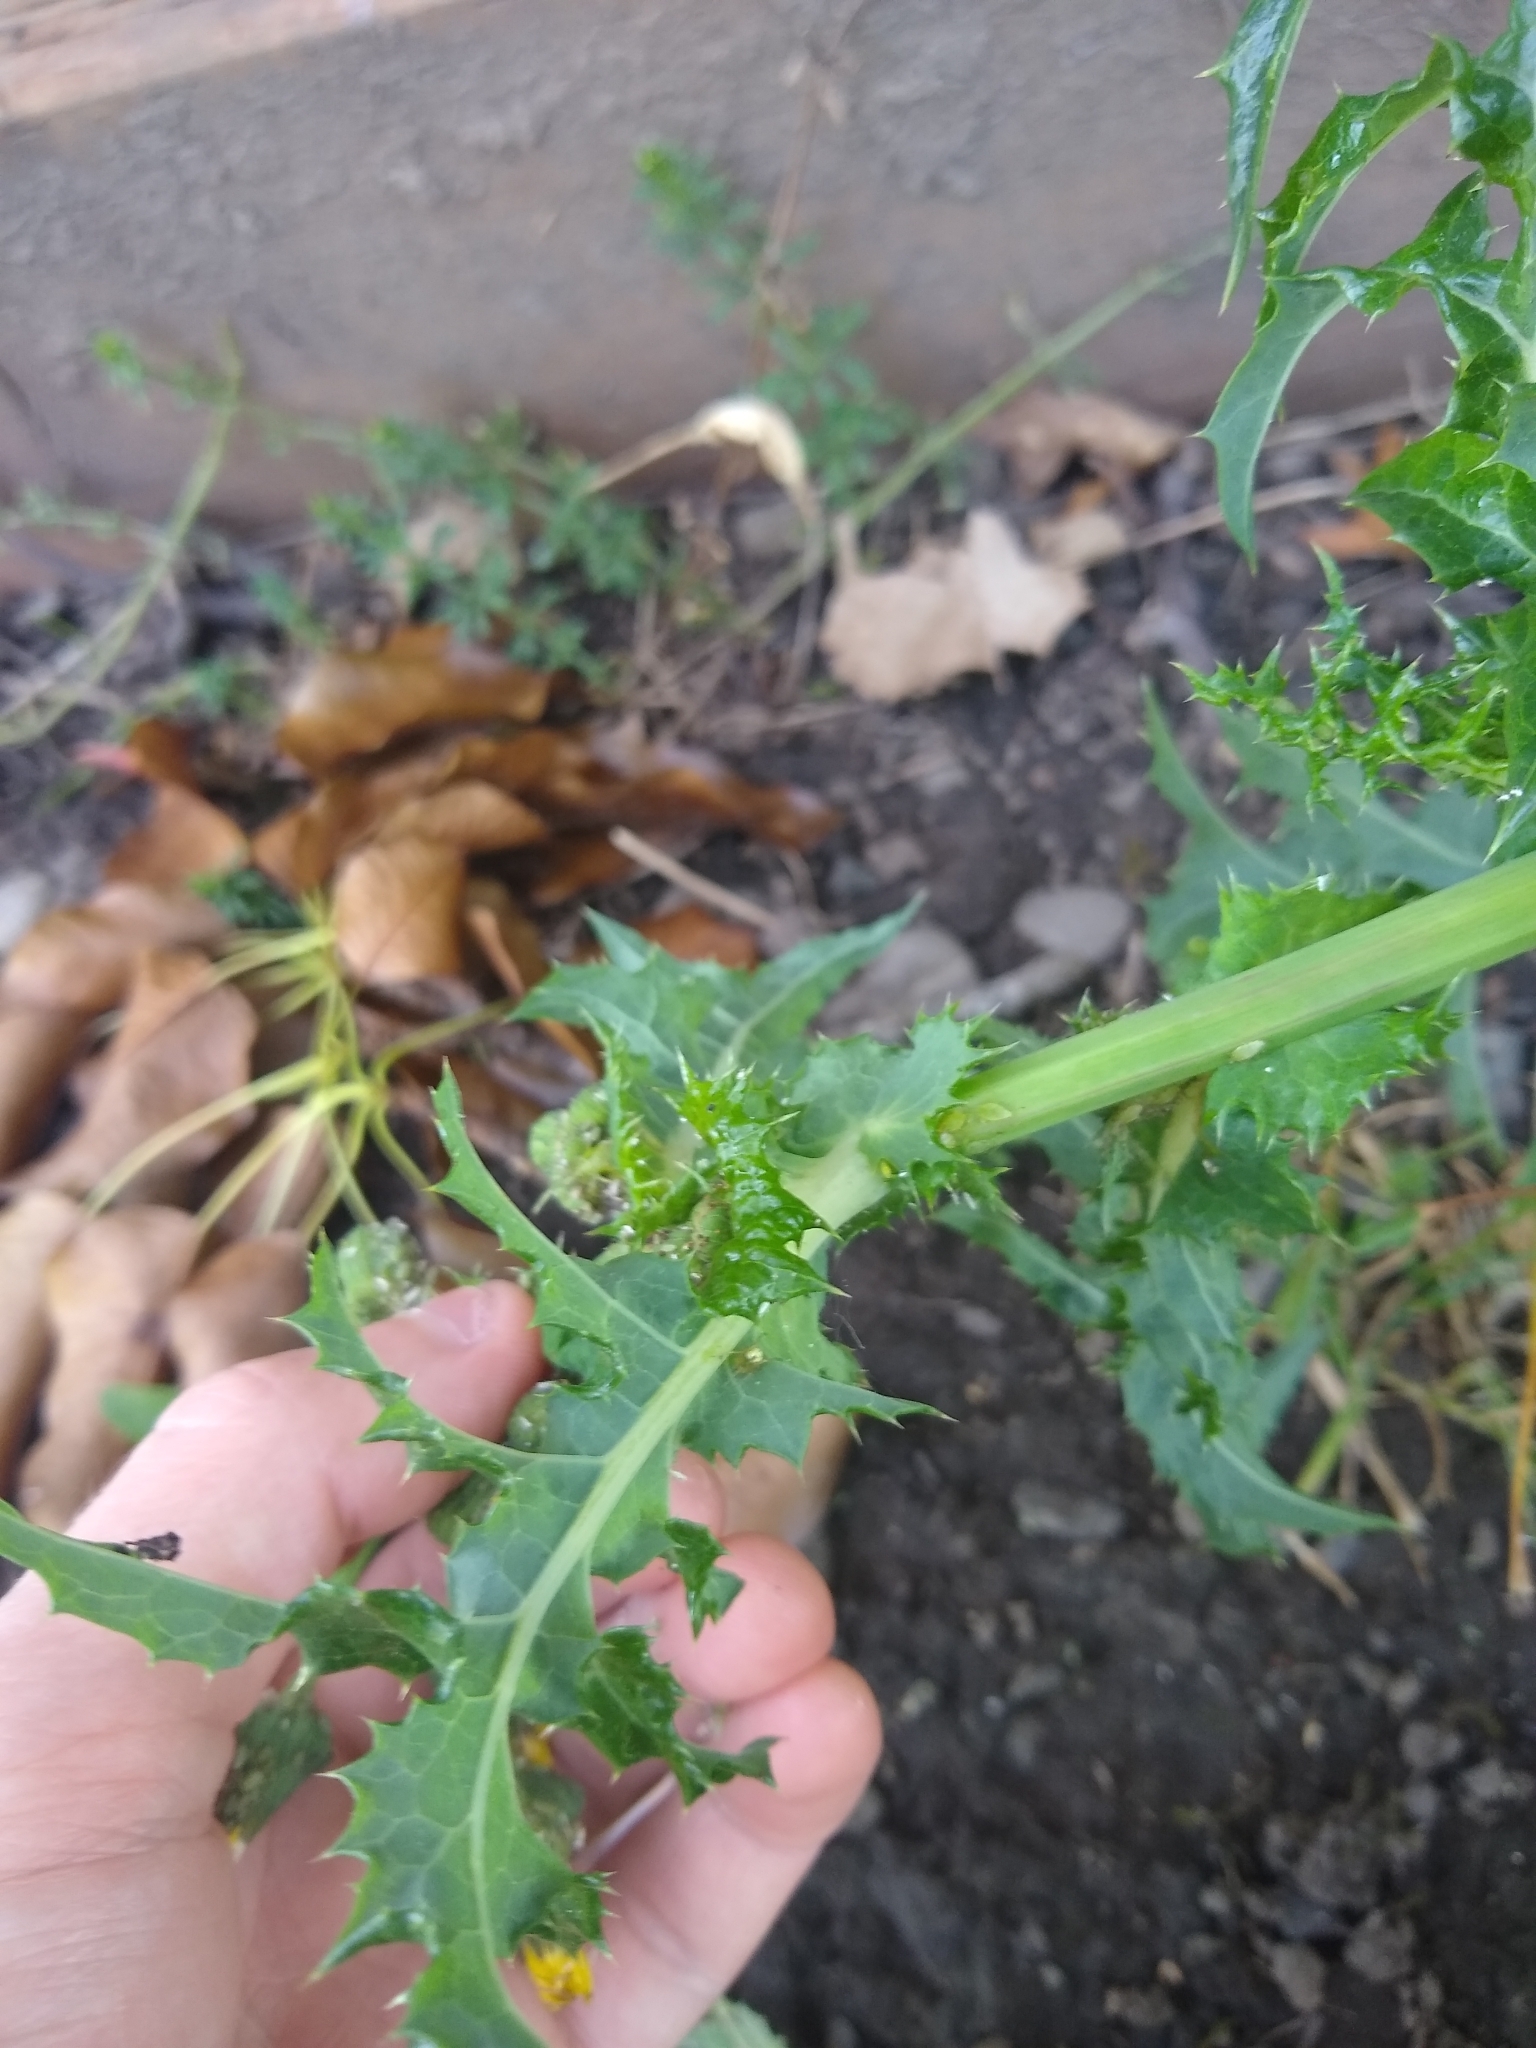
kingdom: Plantae
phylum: Tracheophyta
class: Magnoliopsida
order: Asterales
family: Asteraceae
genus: Sonchus
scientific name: Sonchus asper
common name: Prickly sow-thistle
